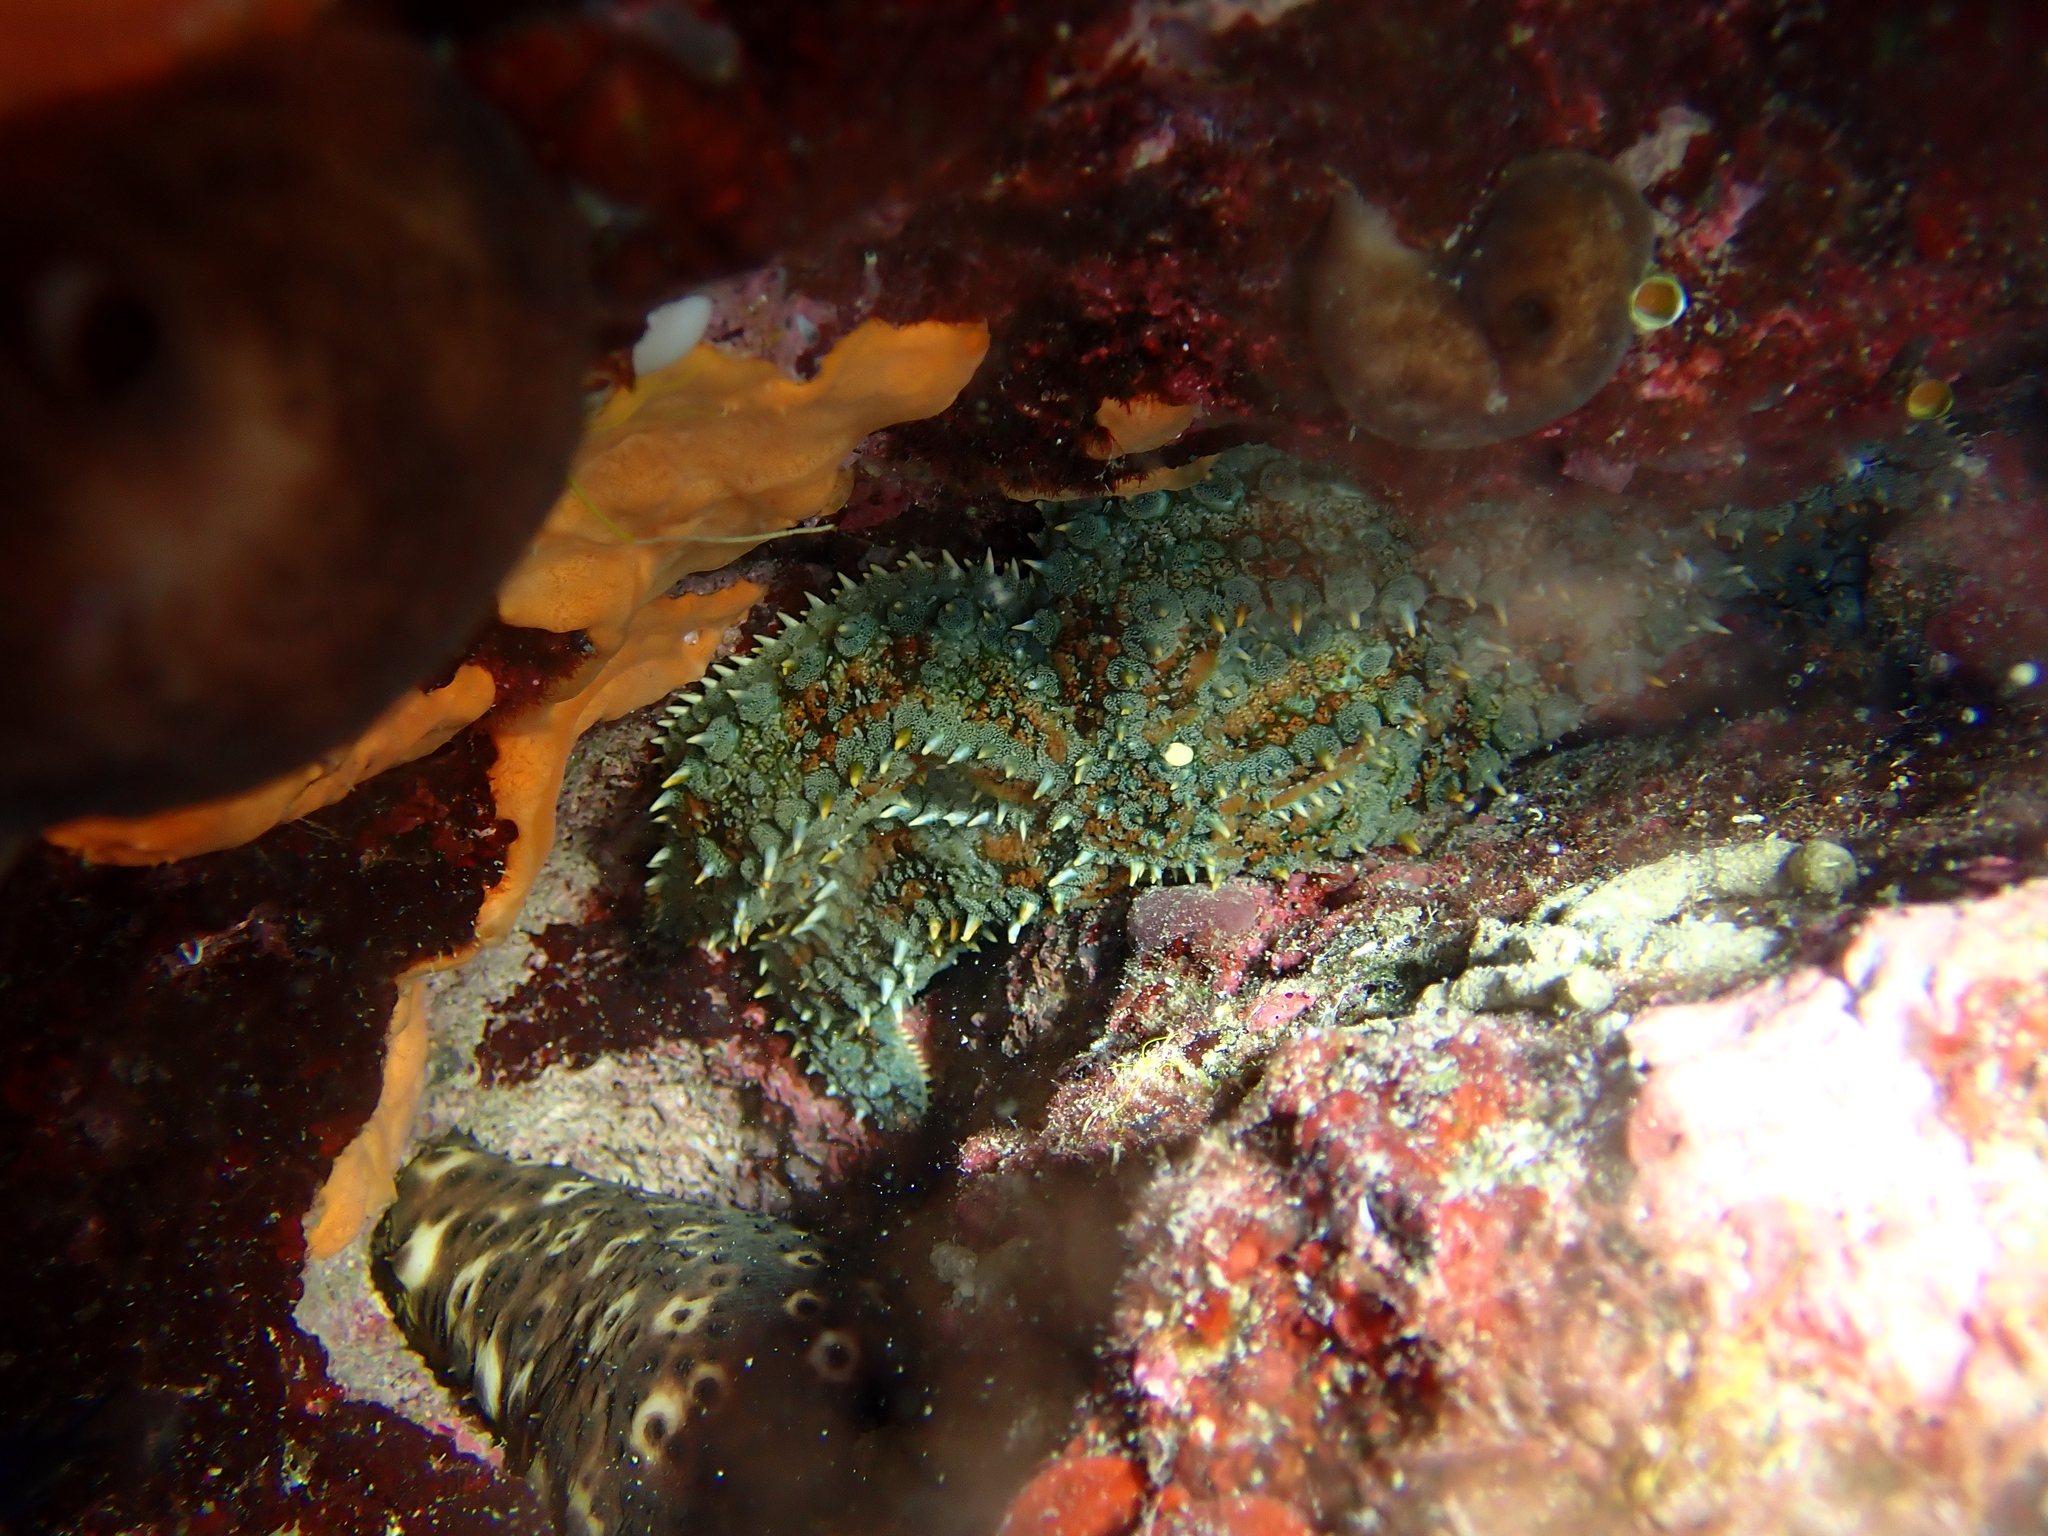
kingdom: Animalia
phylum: Echinodermata
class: Asteroidea
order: Forcipulatida
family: Asteriidae
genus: Marthasterias
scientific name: Marthasterias glacialis
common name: Spiny starfish
